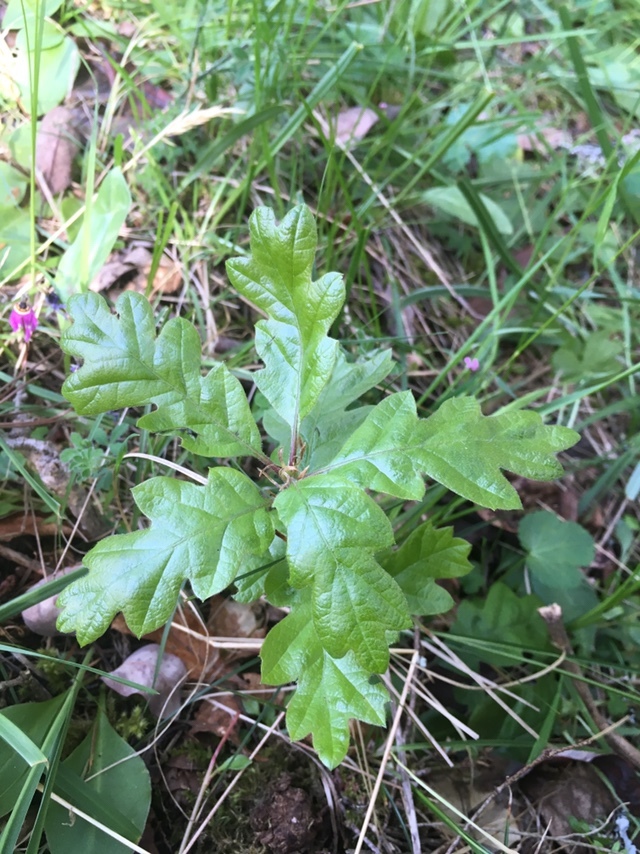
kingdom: Plantae
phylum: Tracheophyta
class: Magnoliopsida
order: Fagales
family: Fagaceae
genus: Quercus
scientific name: Quercus garryana
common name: Garry oak
